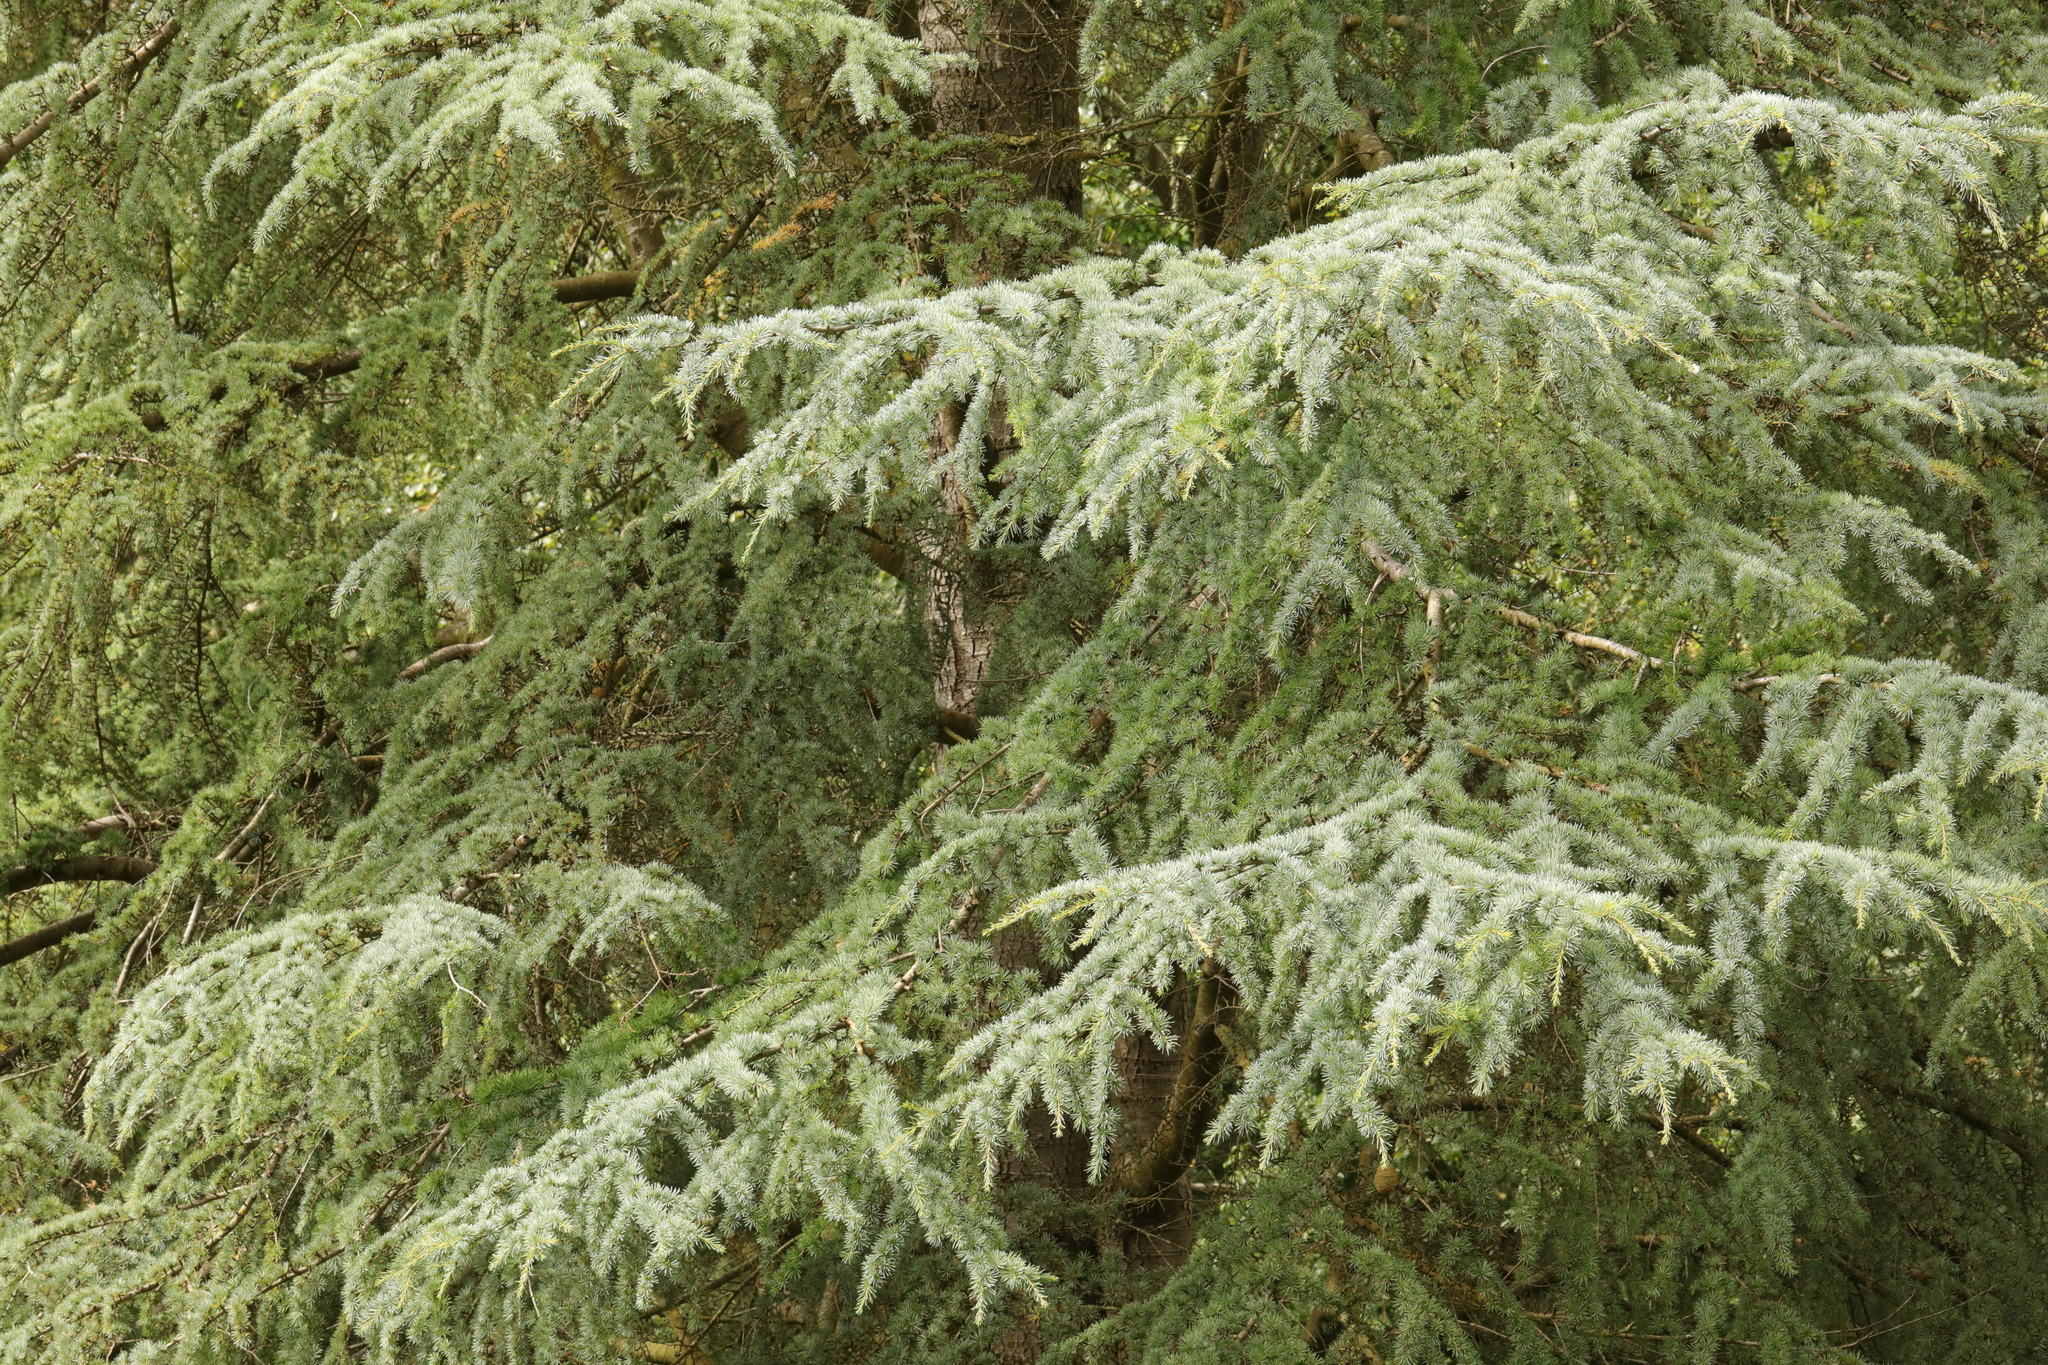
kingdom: Plantae
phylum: Tracheophyta
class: Pinopsida
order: Pinales
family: Pinaceae
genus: Cedrus
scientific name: Cedrus atlantica
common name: Atlas cedar
